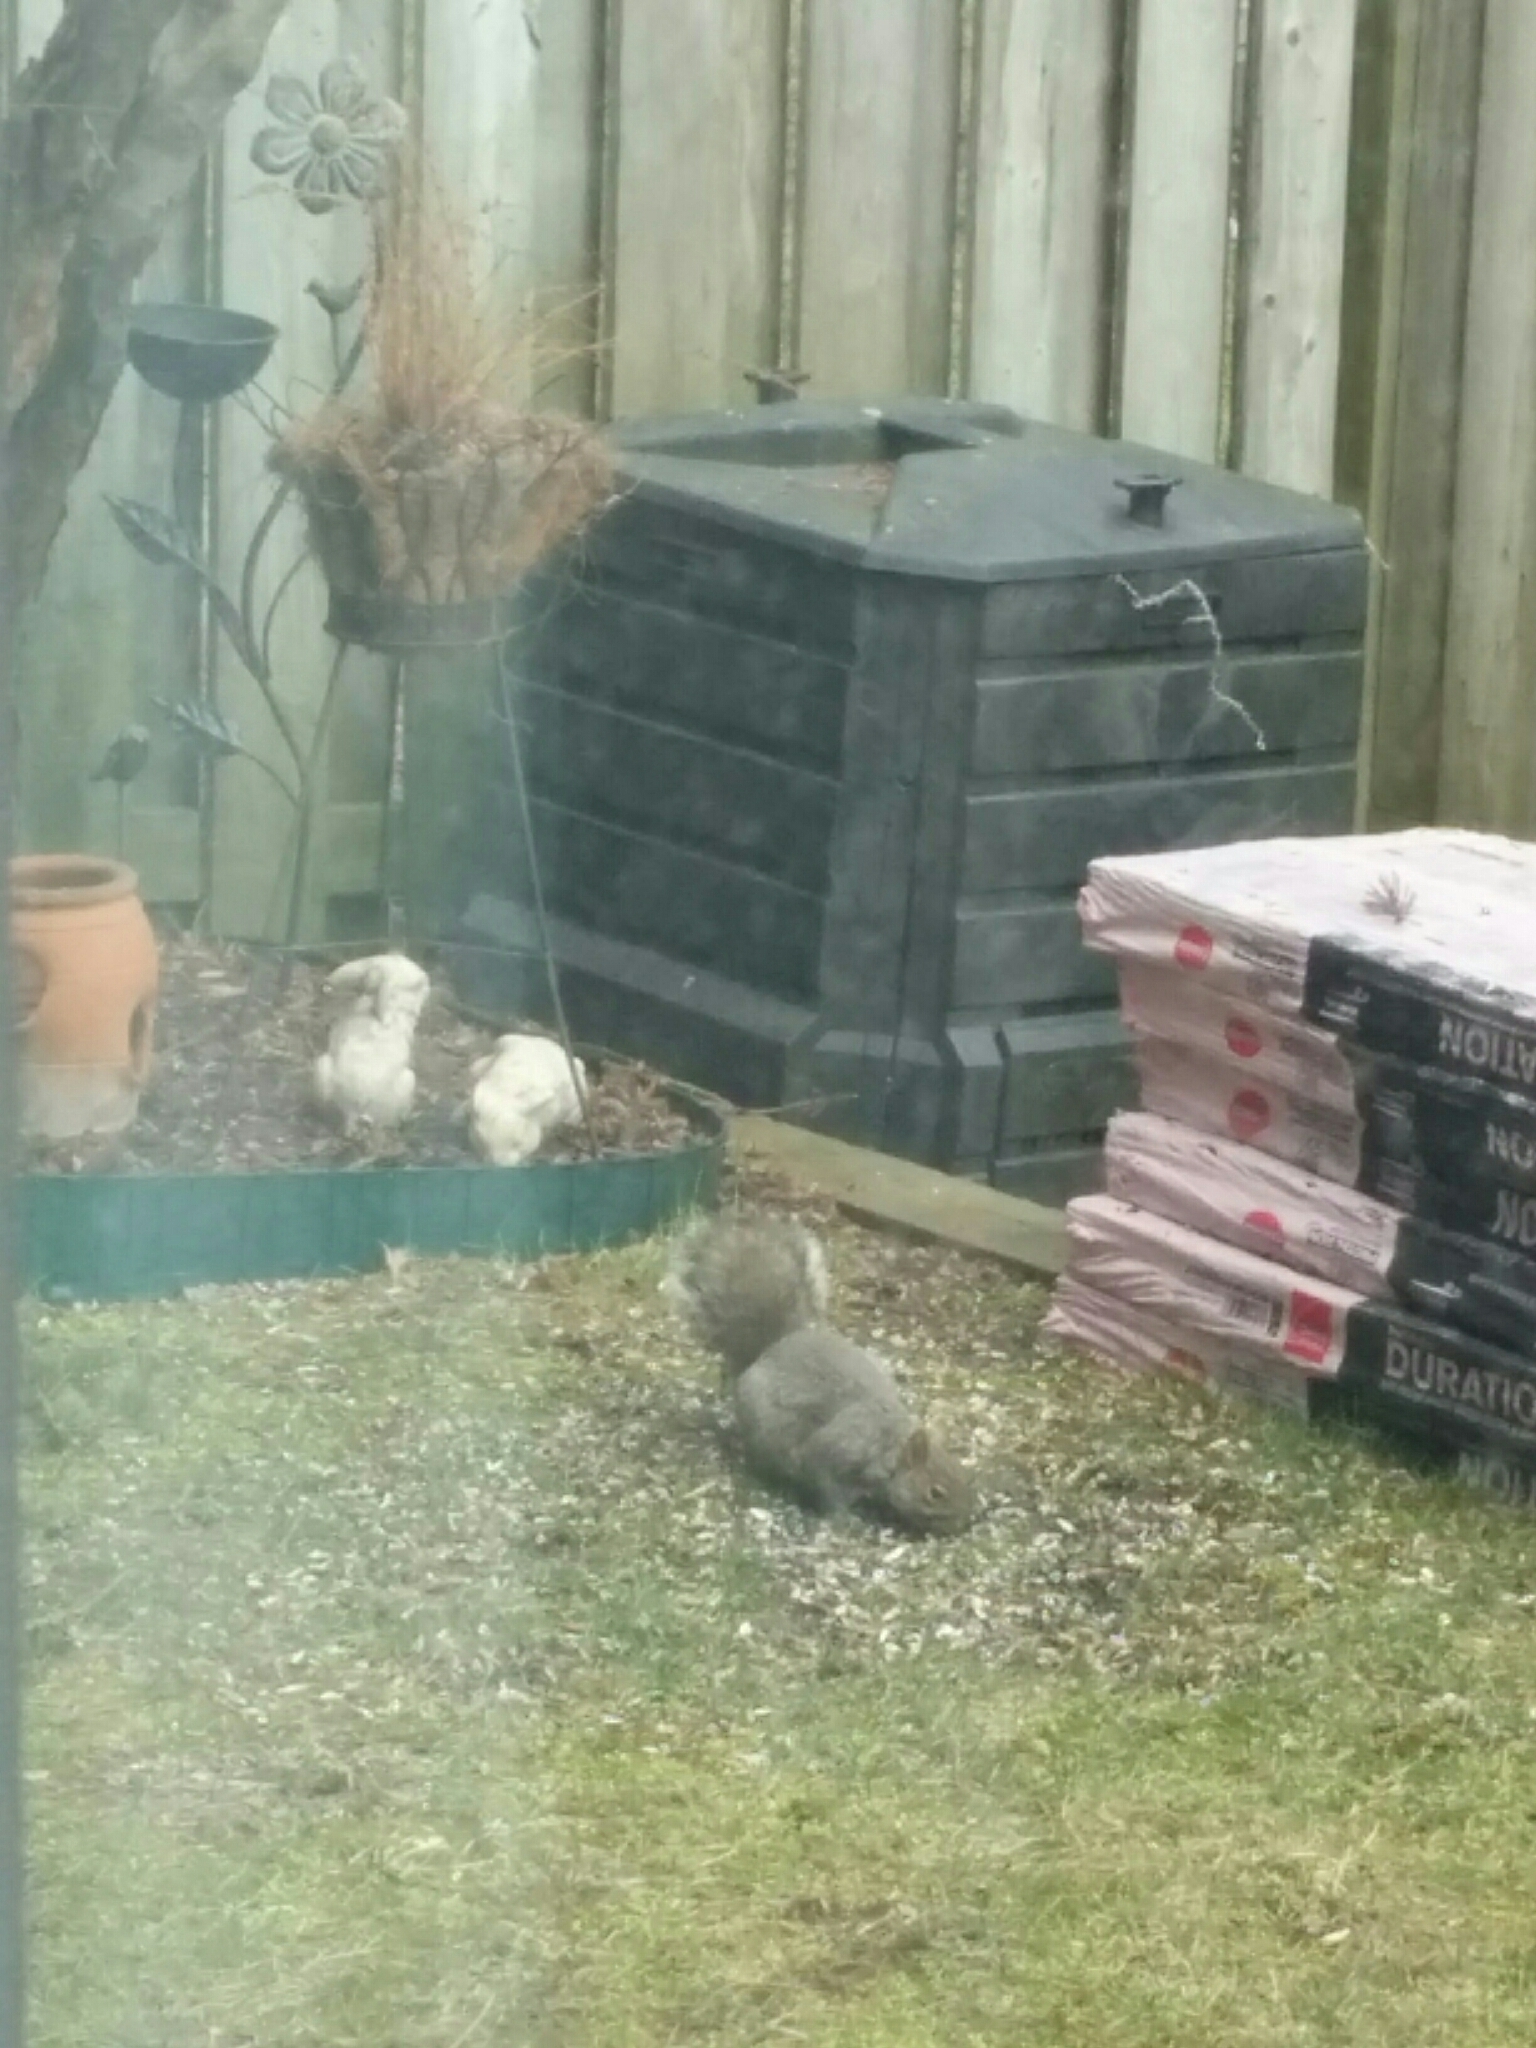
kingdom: Animalia
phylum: Chordata
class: Mammalia
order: Rodentia
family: Sciuridae
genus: Sciurus
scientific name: Sciurus carolinensis
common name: Eastern gray squirrel
